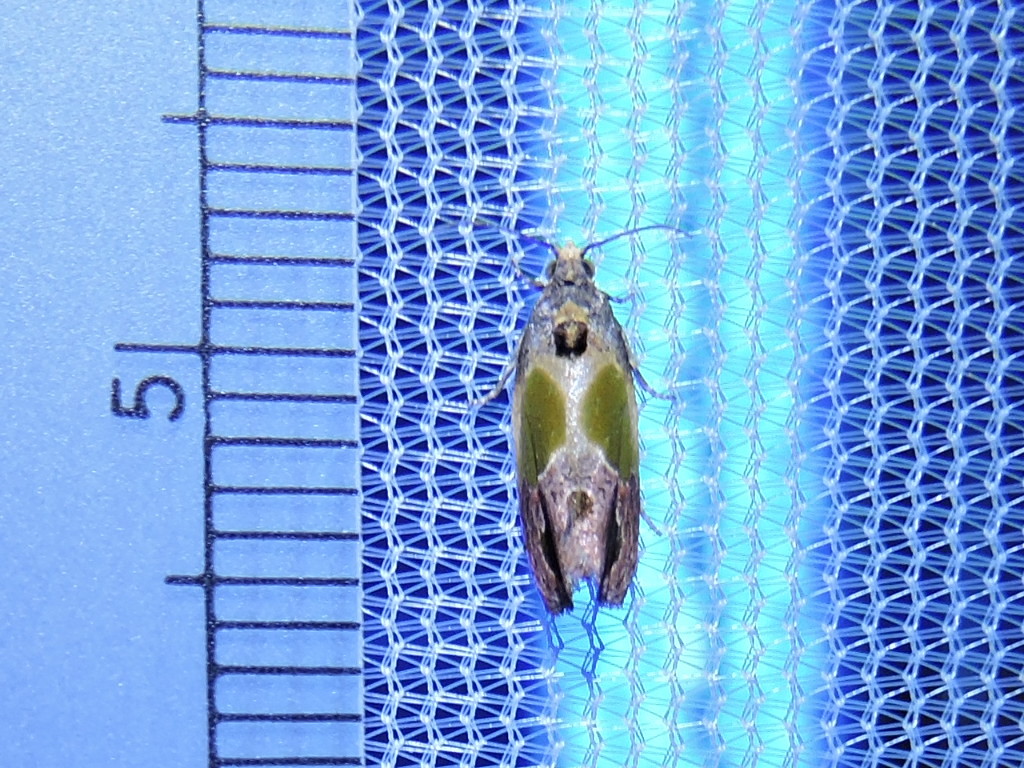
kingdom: Animalia
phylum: Arthropoda
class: Insecta
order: Lepidoptera
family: Tortricidae
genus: Eumarozia
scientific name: Eumarozia malachitana
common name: Sculptured moth
